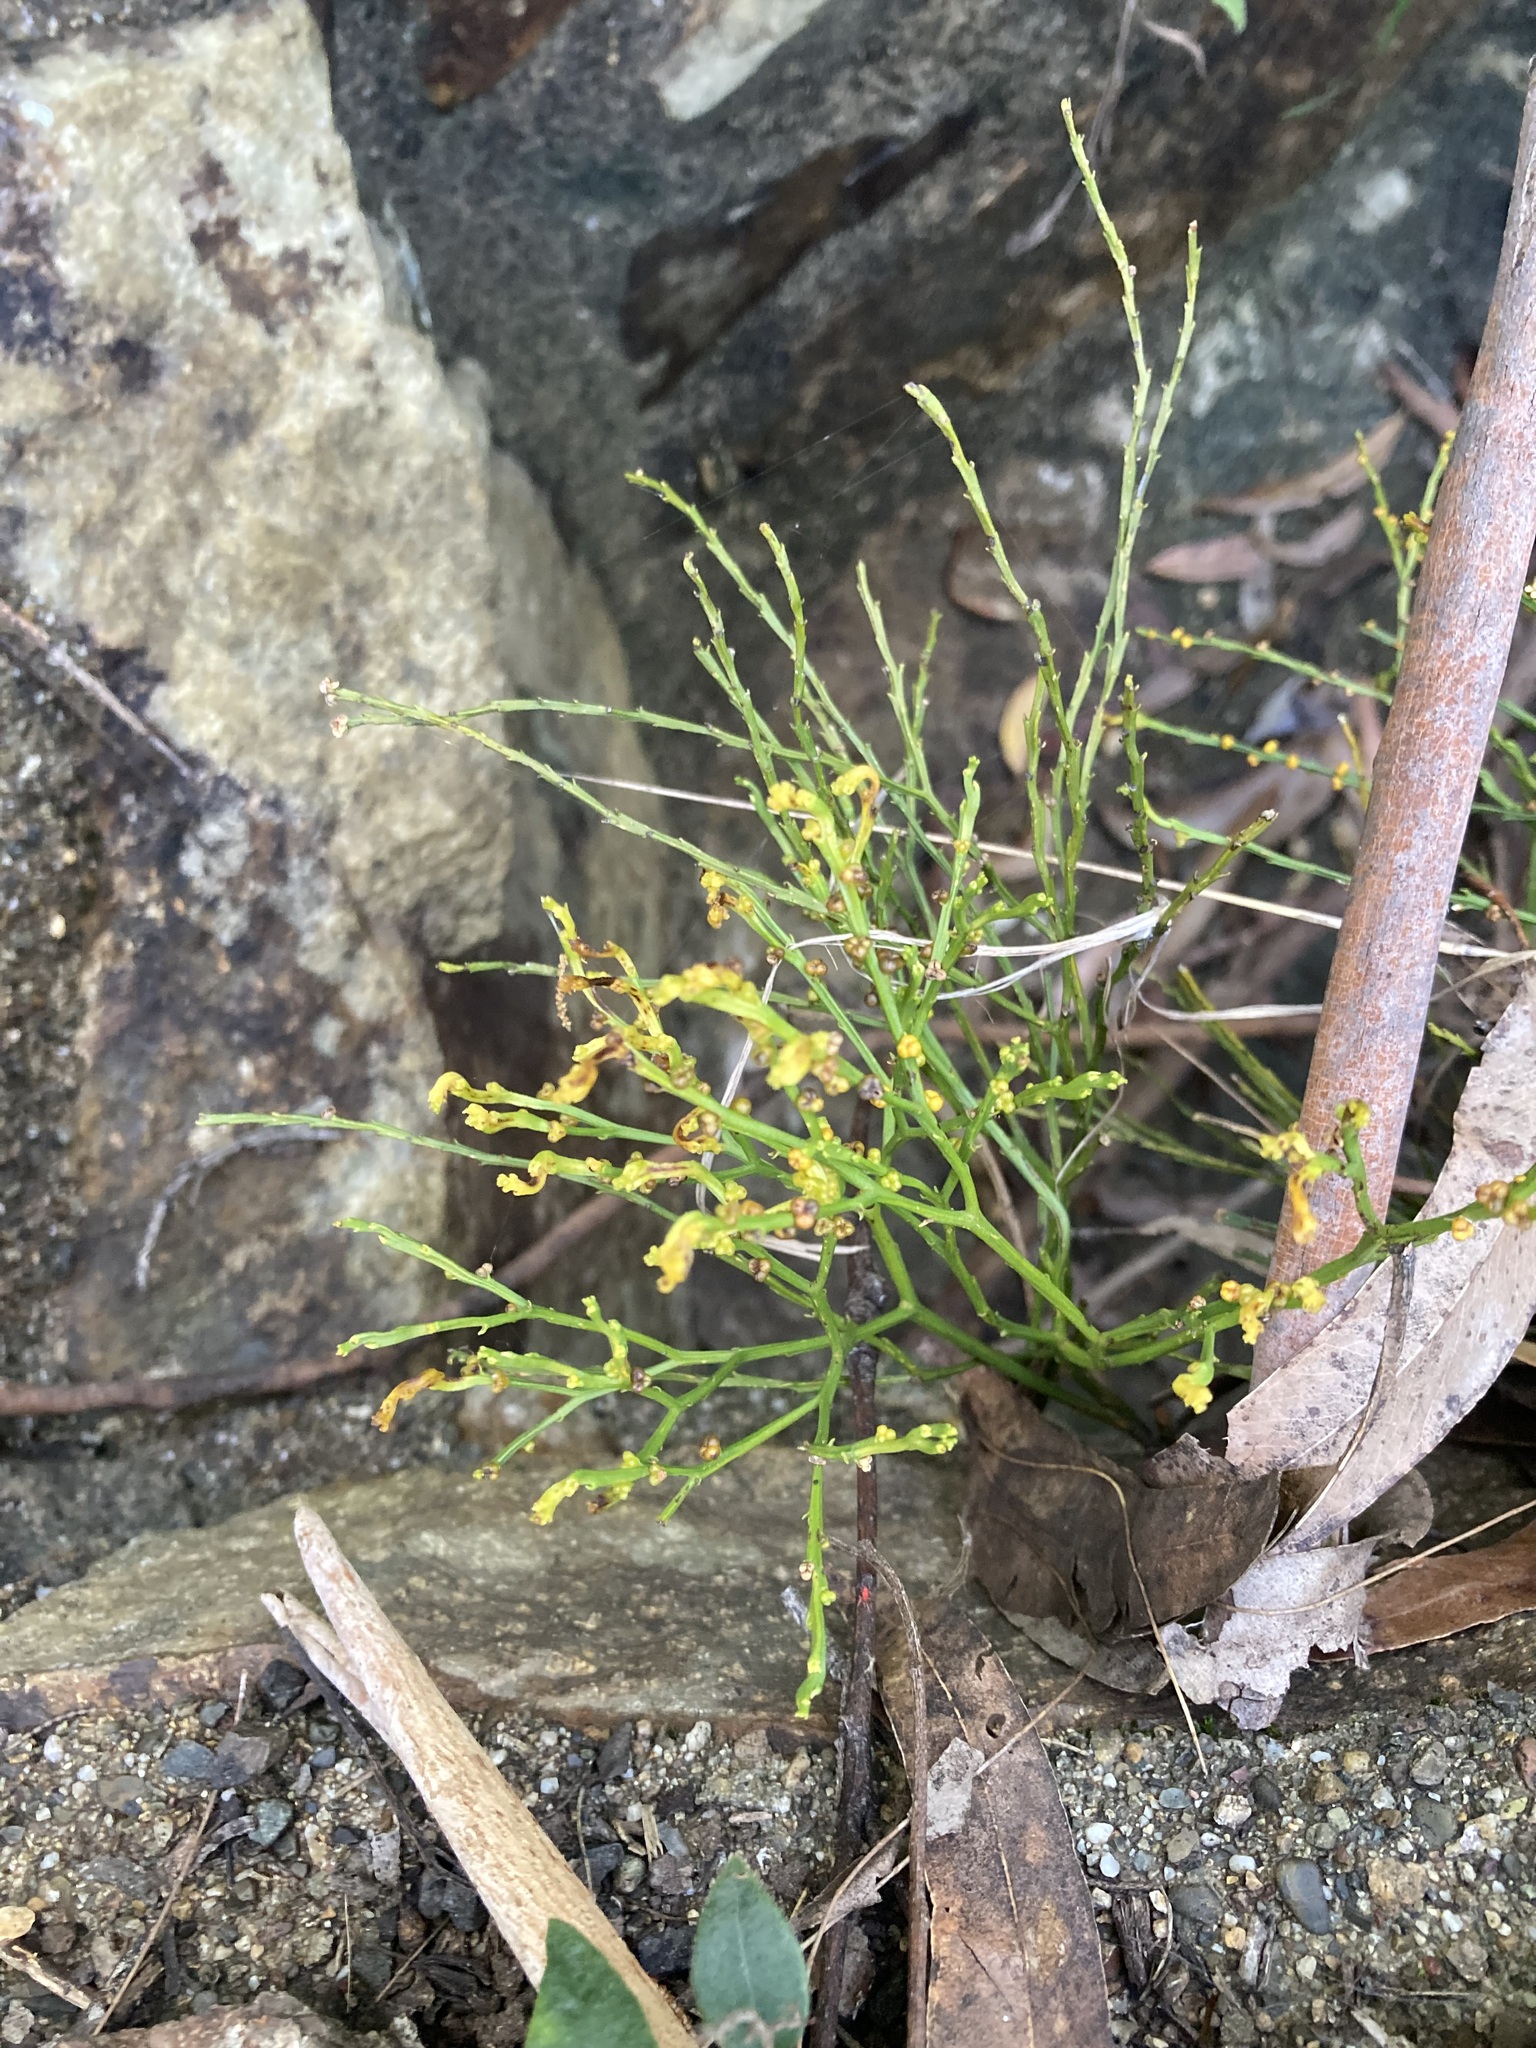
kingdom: Plantae
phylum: Tracheophyta
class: Polypodiopsida
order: Psilotales
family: Psilotaceae
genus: Psilotum
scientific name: Psilotum nudum
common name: Skeleton fork fern
